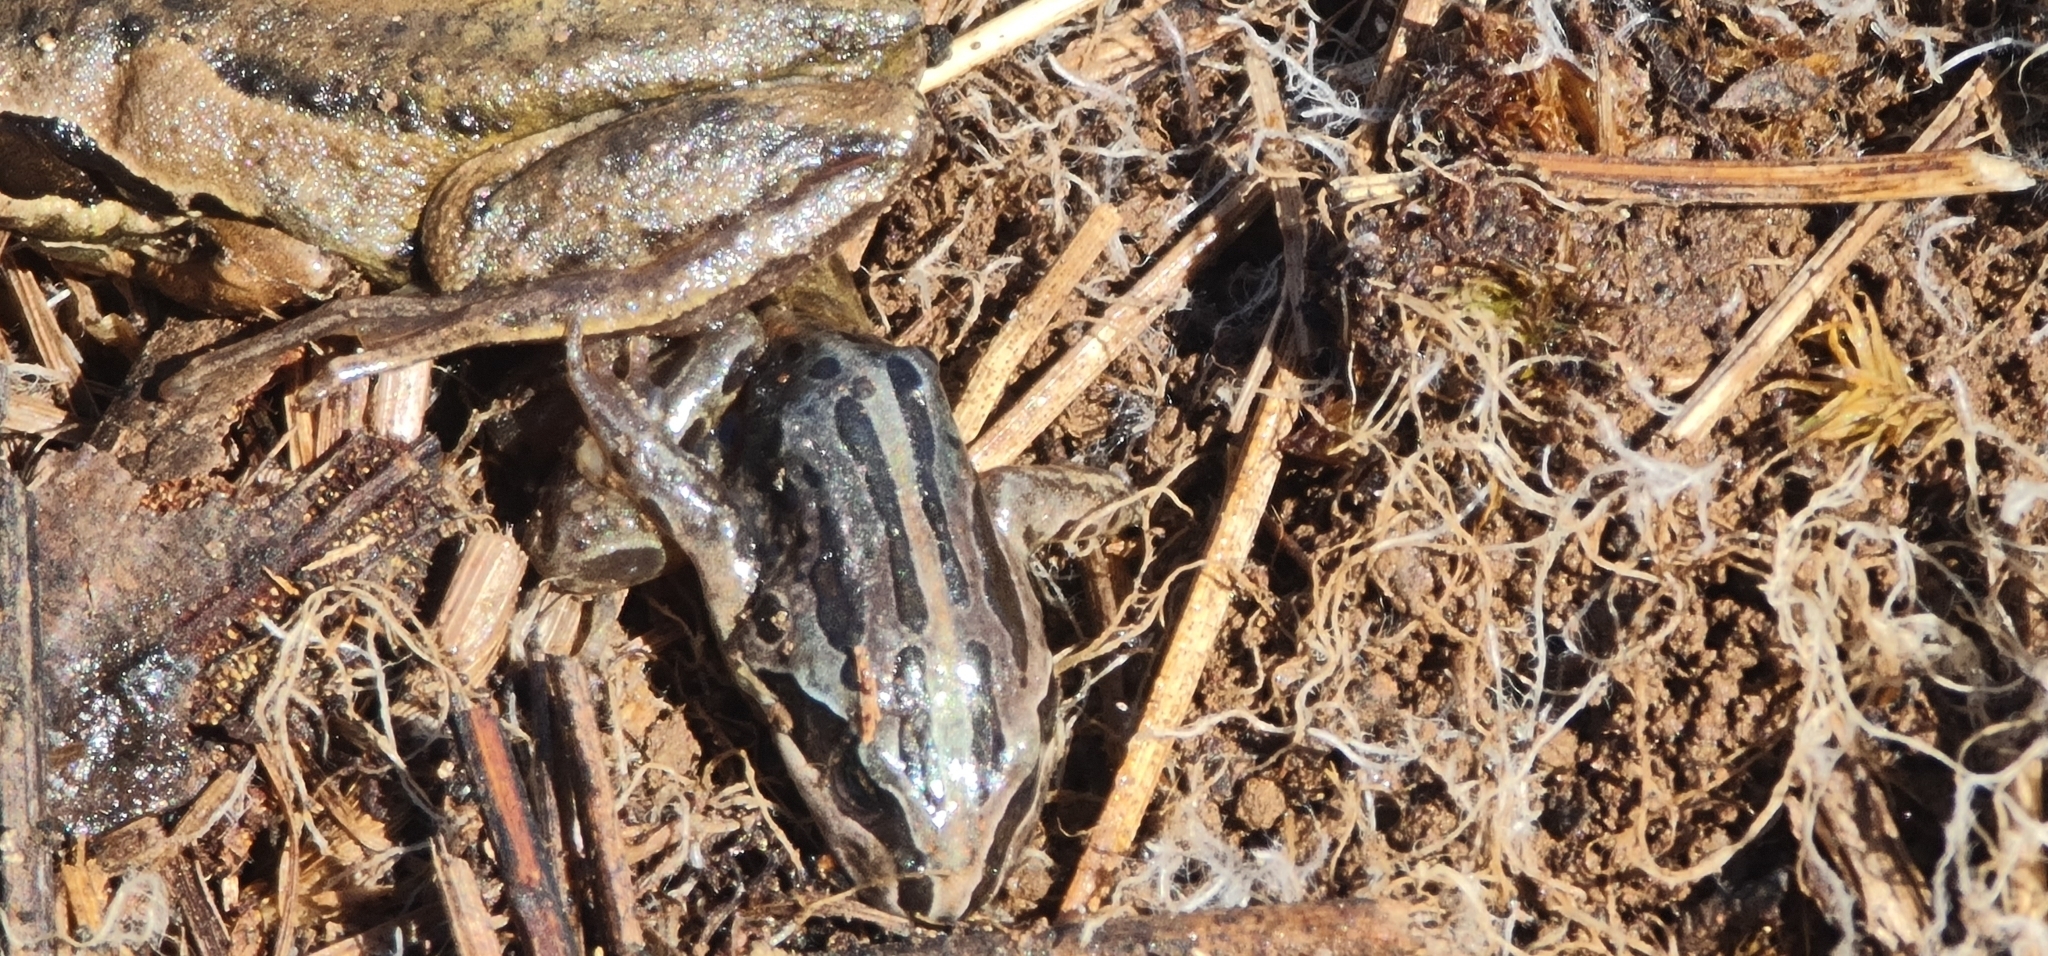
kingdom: Animalia
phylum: Chordata
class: Amphibia
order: Anura
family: Limnodynastidae
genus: Limnodynastes
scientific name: Limnodynastes peronii
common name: Brown frog
